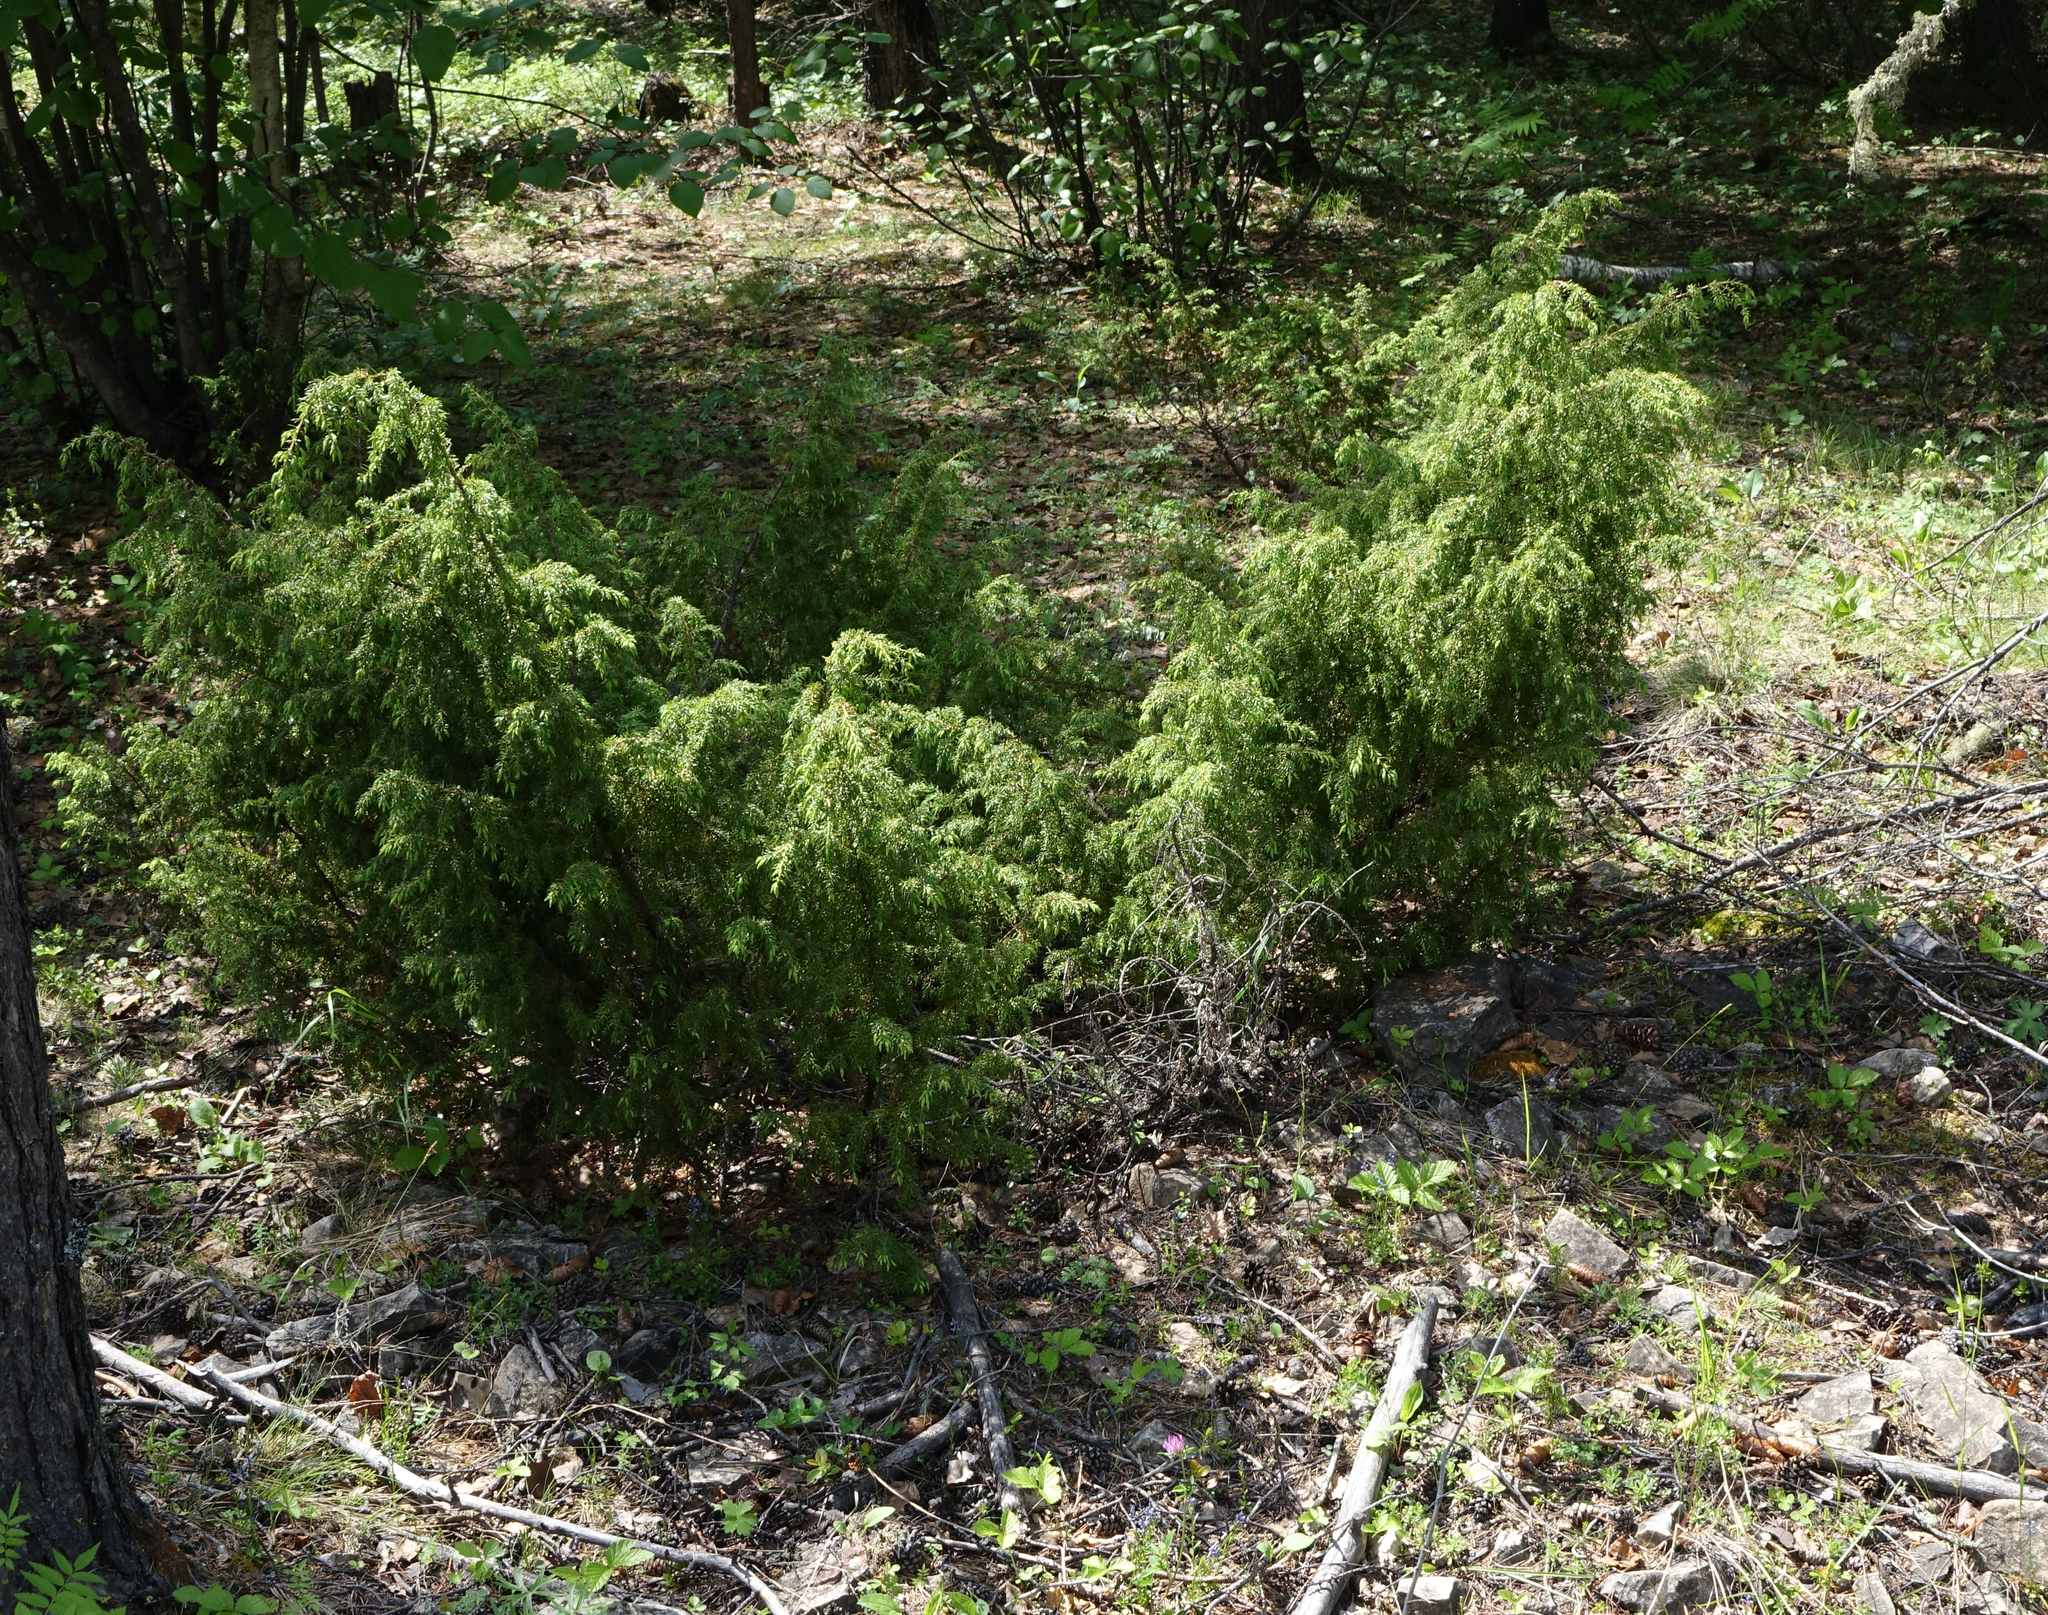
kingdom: Plantae
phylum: Tracheophyta
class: Pinopsida
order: Pinales
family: Cupressaceae
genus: Juniperus
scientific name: Juniperus communis
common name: Common juniper
